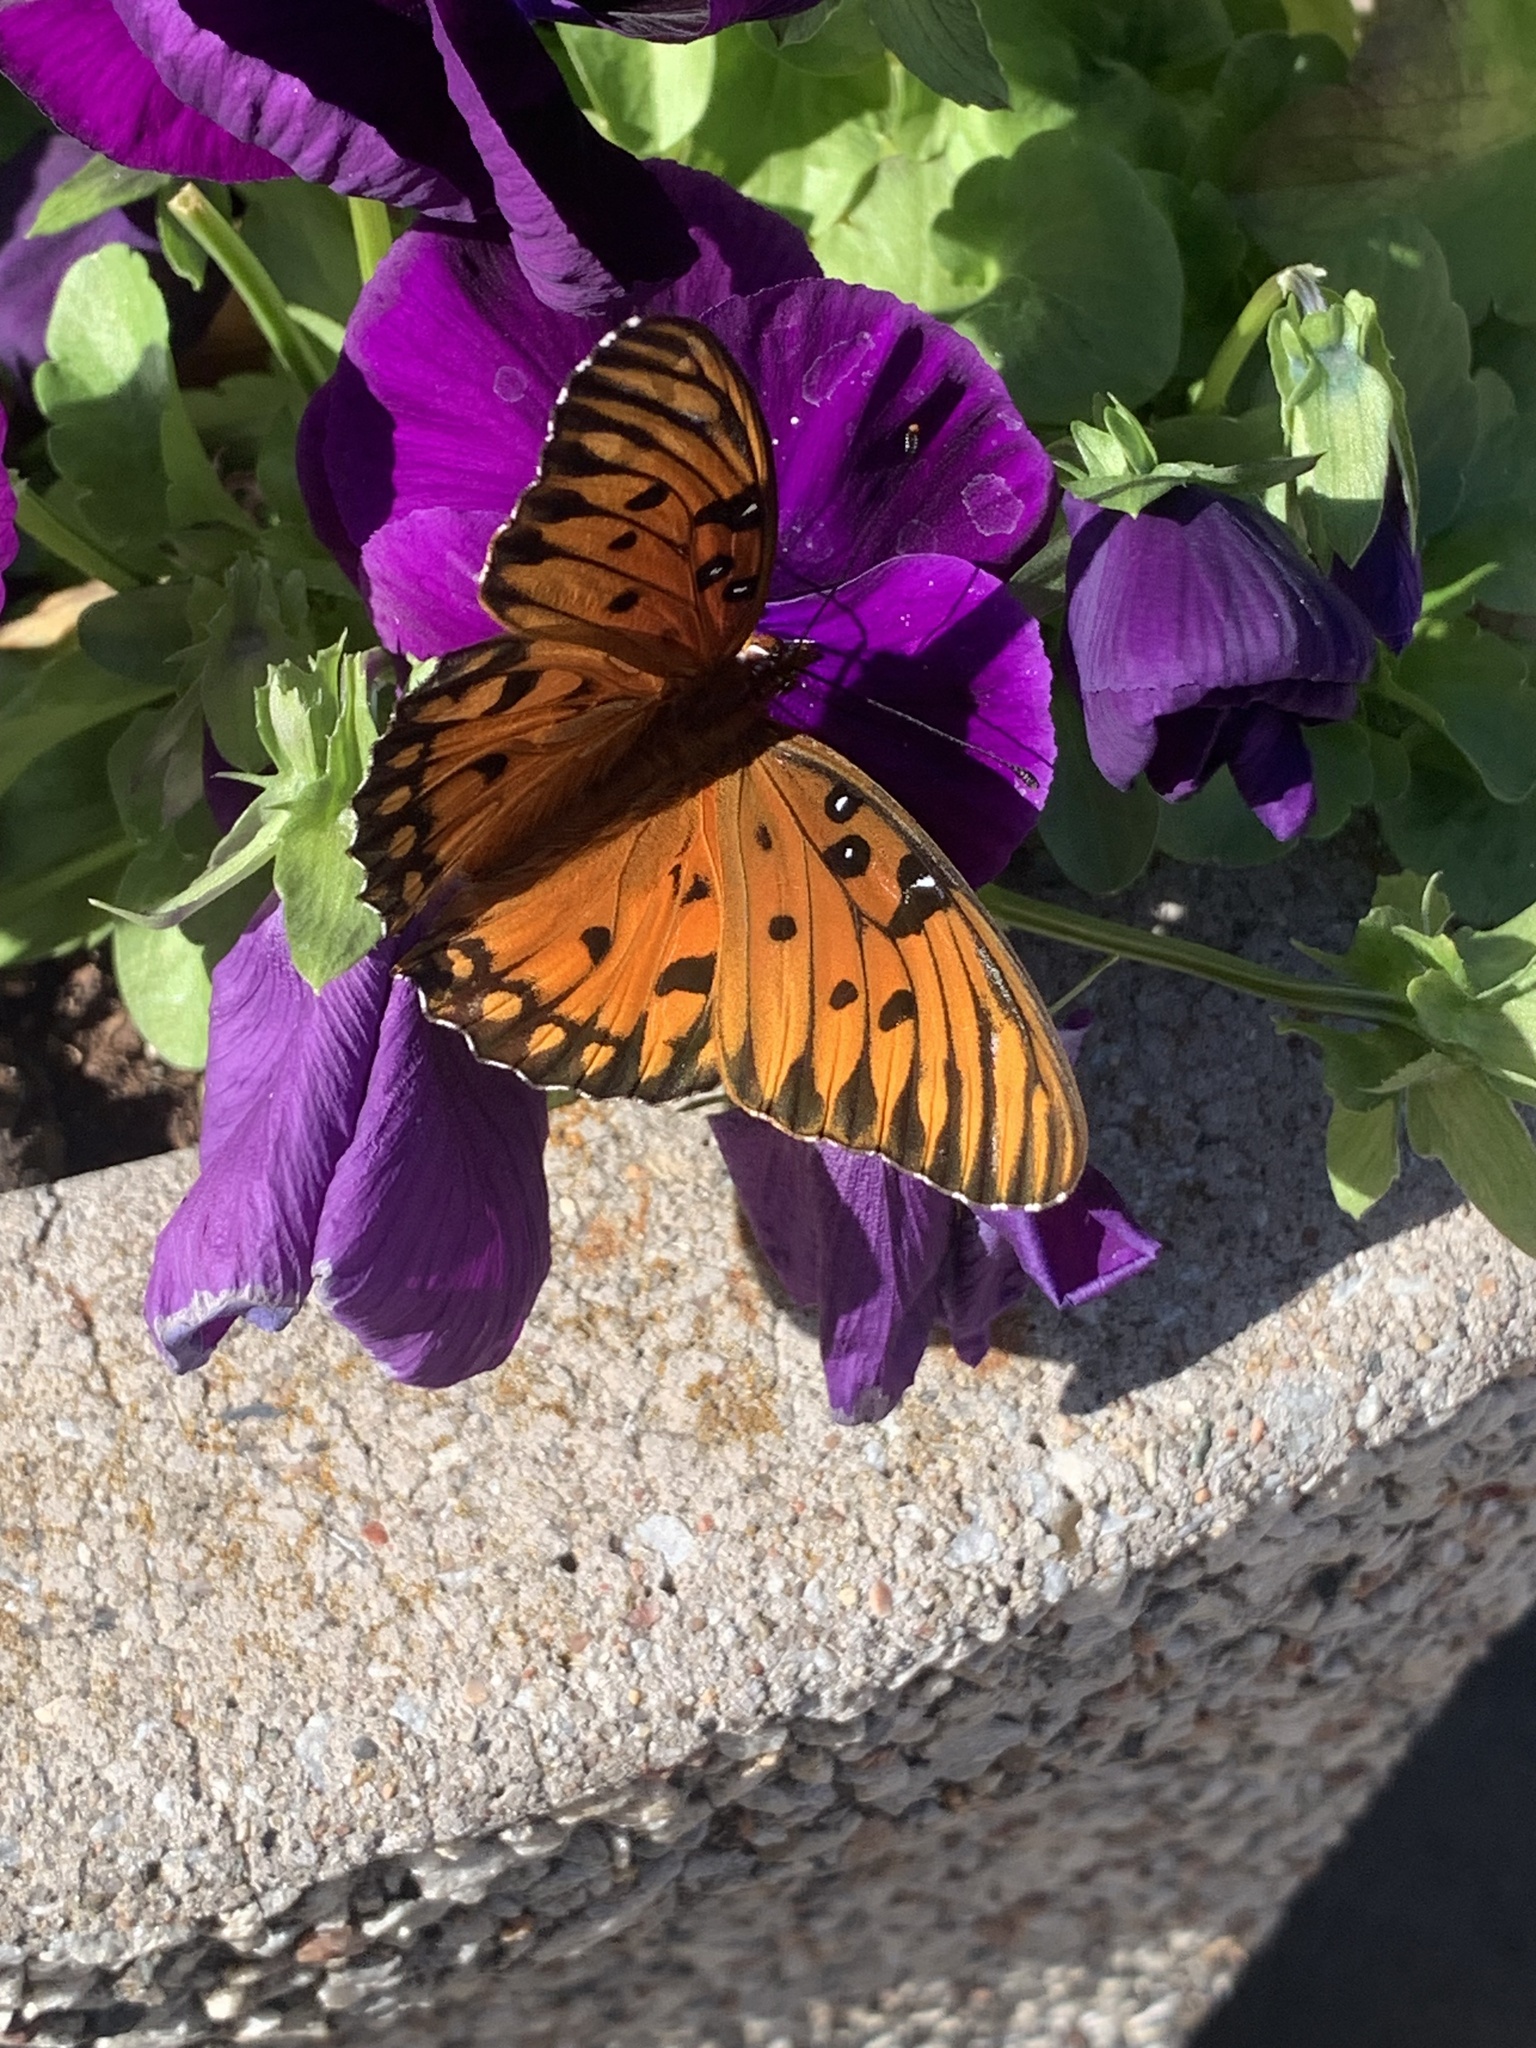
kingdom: Animalia
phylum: Arthropoda
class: Insecta
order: Lepidoptera
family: Nymphalidae
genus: Dione
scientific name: Dione vanillae
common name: Gulf fritillary
